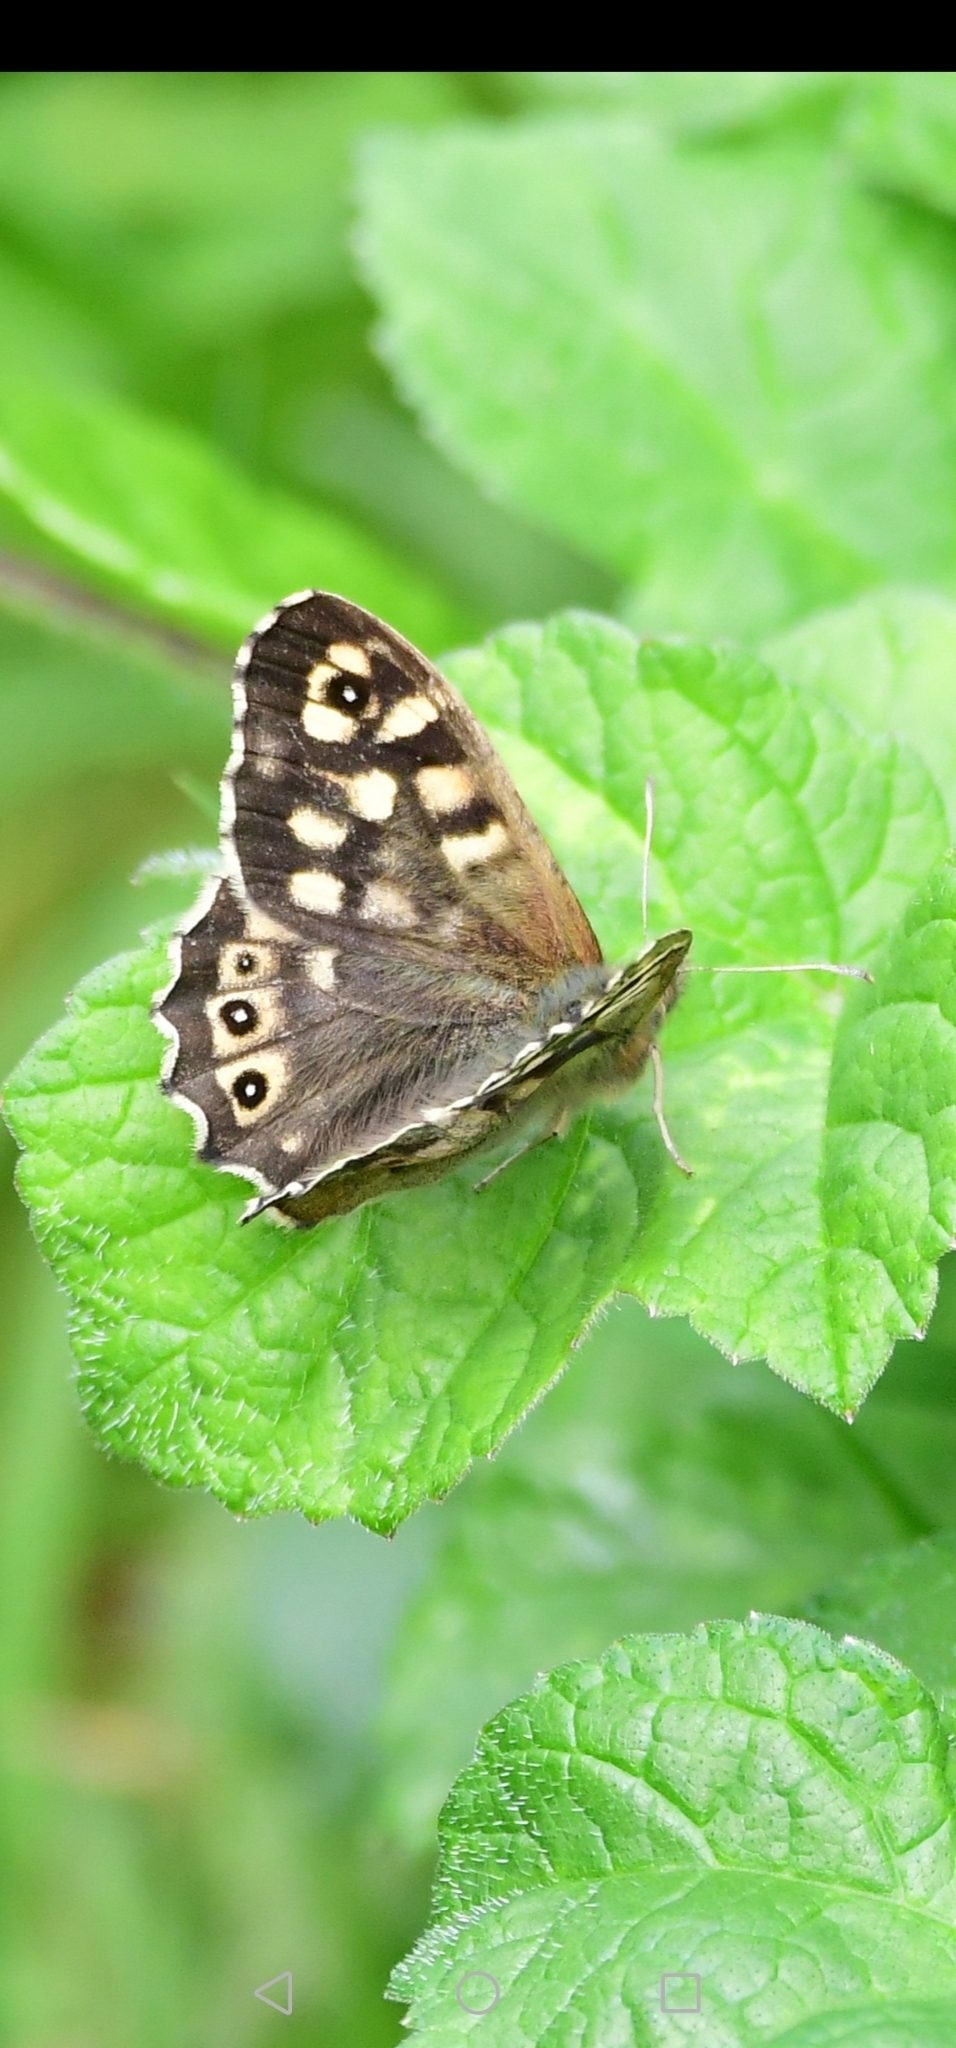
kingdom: Animalia
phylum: Arthropoda
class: Insecta
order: Lepidoptera
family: Nymphalidae
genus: Pararge
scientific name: Pararge aegeria
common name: Speckled wood
